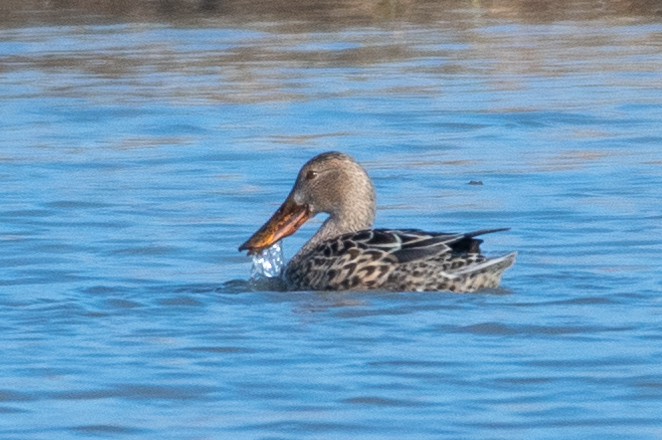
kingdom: Animalia
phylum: Chordata
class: Aves
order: Anseriformes
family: Anatidae
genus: Spatula
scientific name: Spatula clypeata
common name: Northern shoveler
